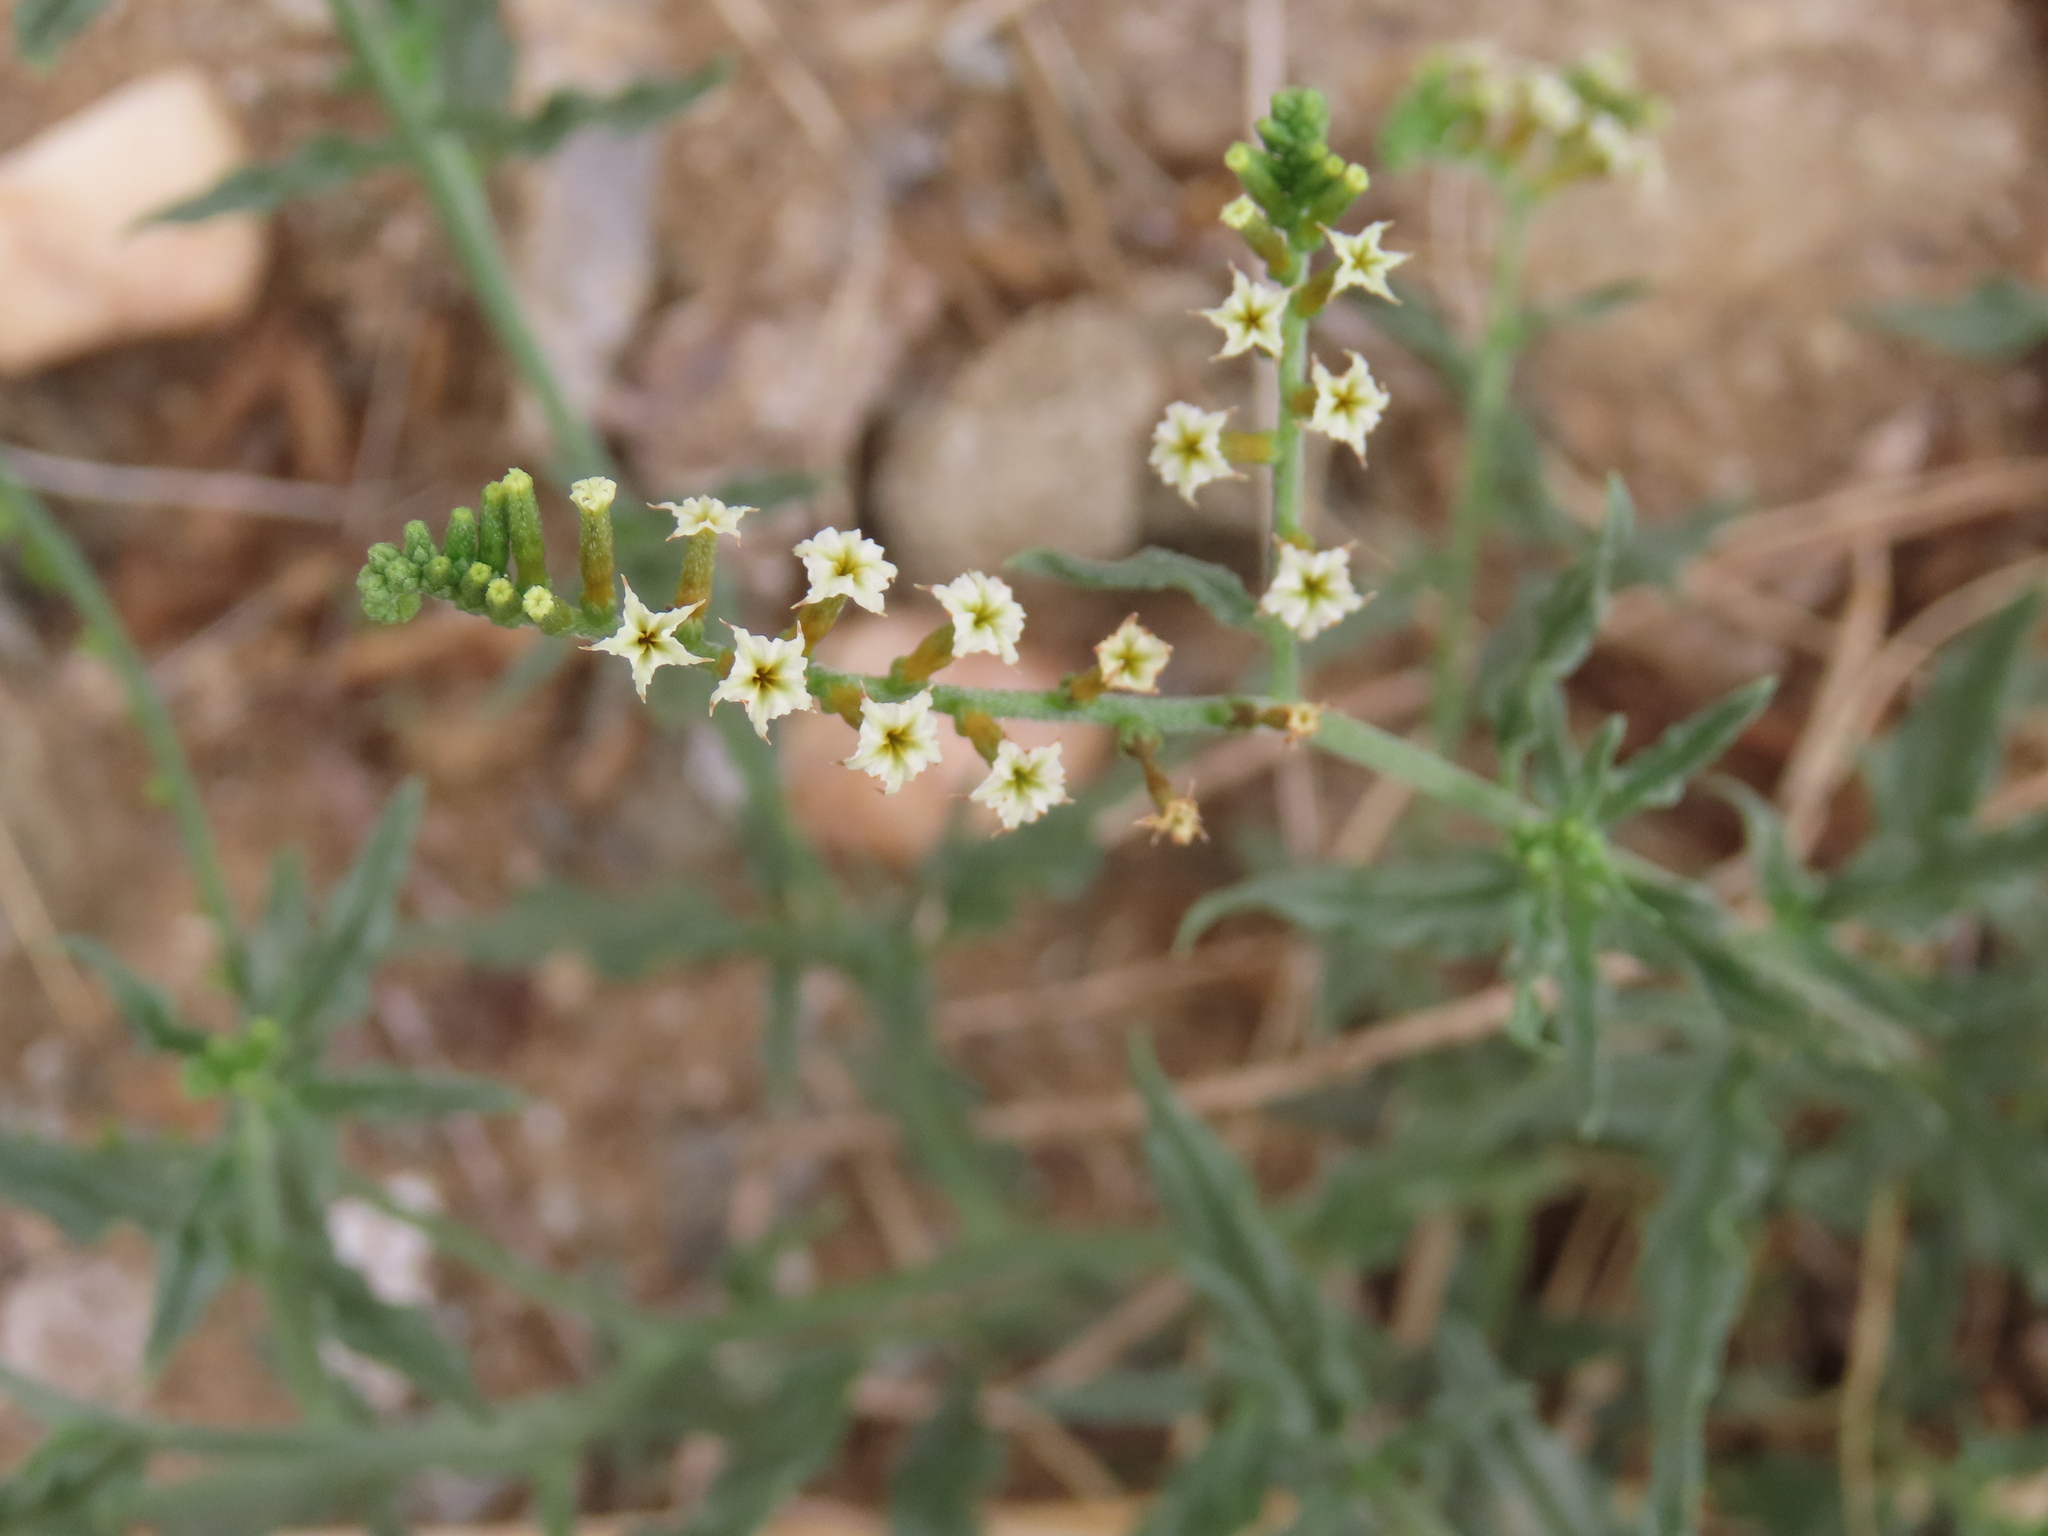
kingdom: Plantae
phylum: Tracheophyta
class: Magnoliopsida
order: Boraginales
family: Heliotropiaceae
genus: Heliotropium
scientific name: Heliotropium ciliatum
